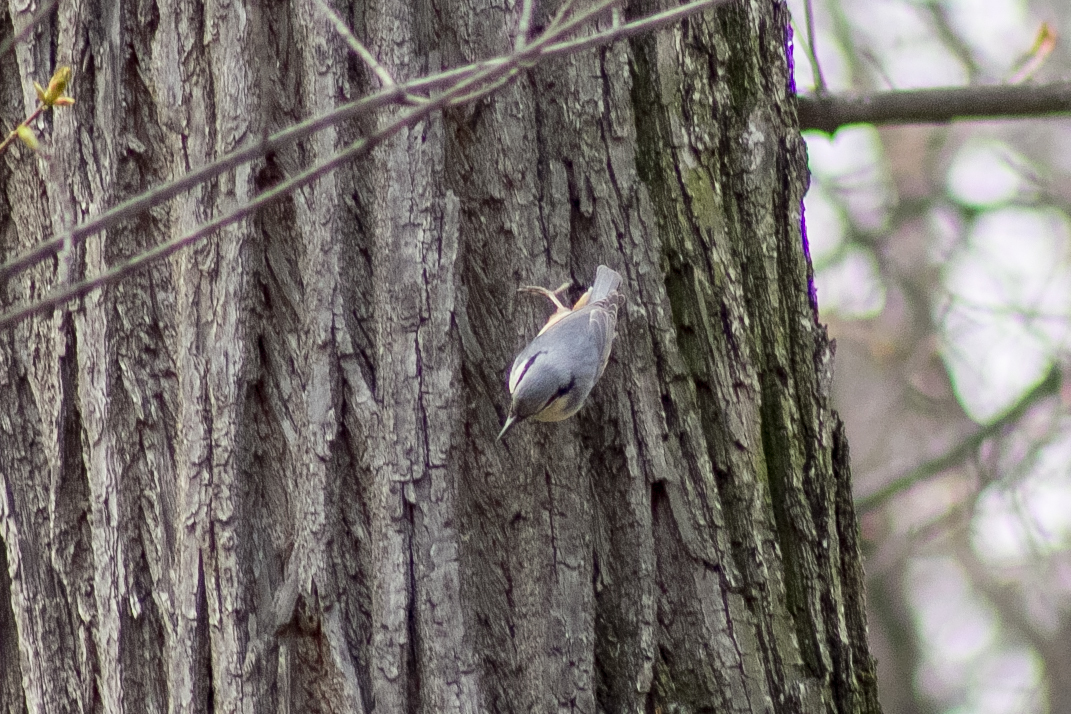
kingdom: Animalia
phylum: Chordata
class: Aves
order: Passeriformes
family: Sittidae
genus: Sitta
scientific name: Sitta europaea
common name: Eurasian nuthatch
